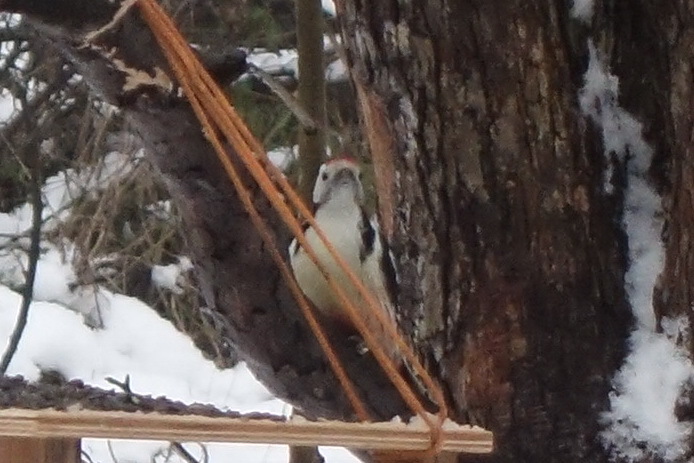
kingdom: Animalia
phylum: Chordata
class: Aves
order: Piciformes
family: Picidae
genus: Dendrocoptes
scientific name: Dendrocoptes medius
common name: Middle spotted woodpecker
